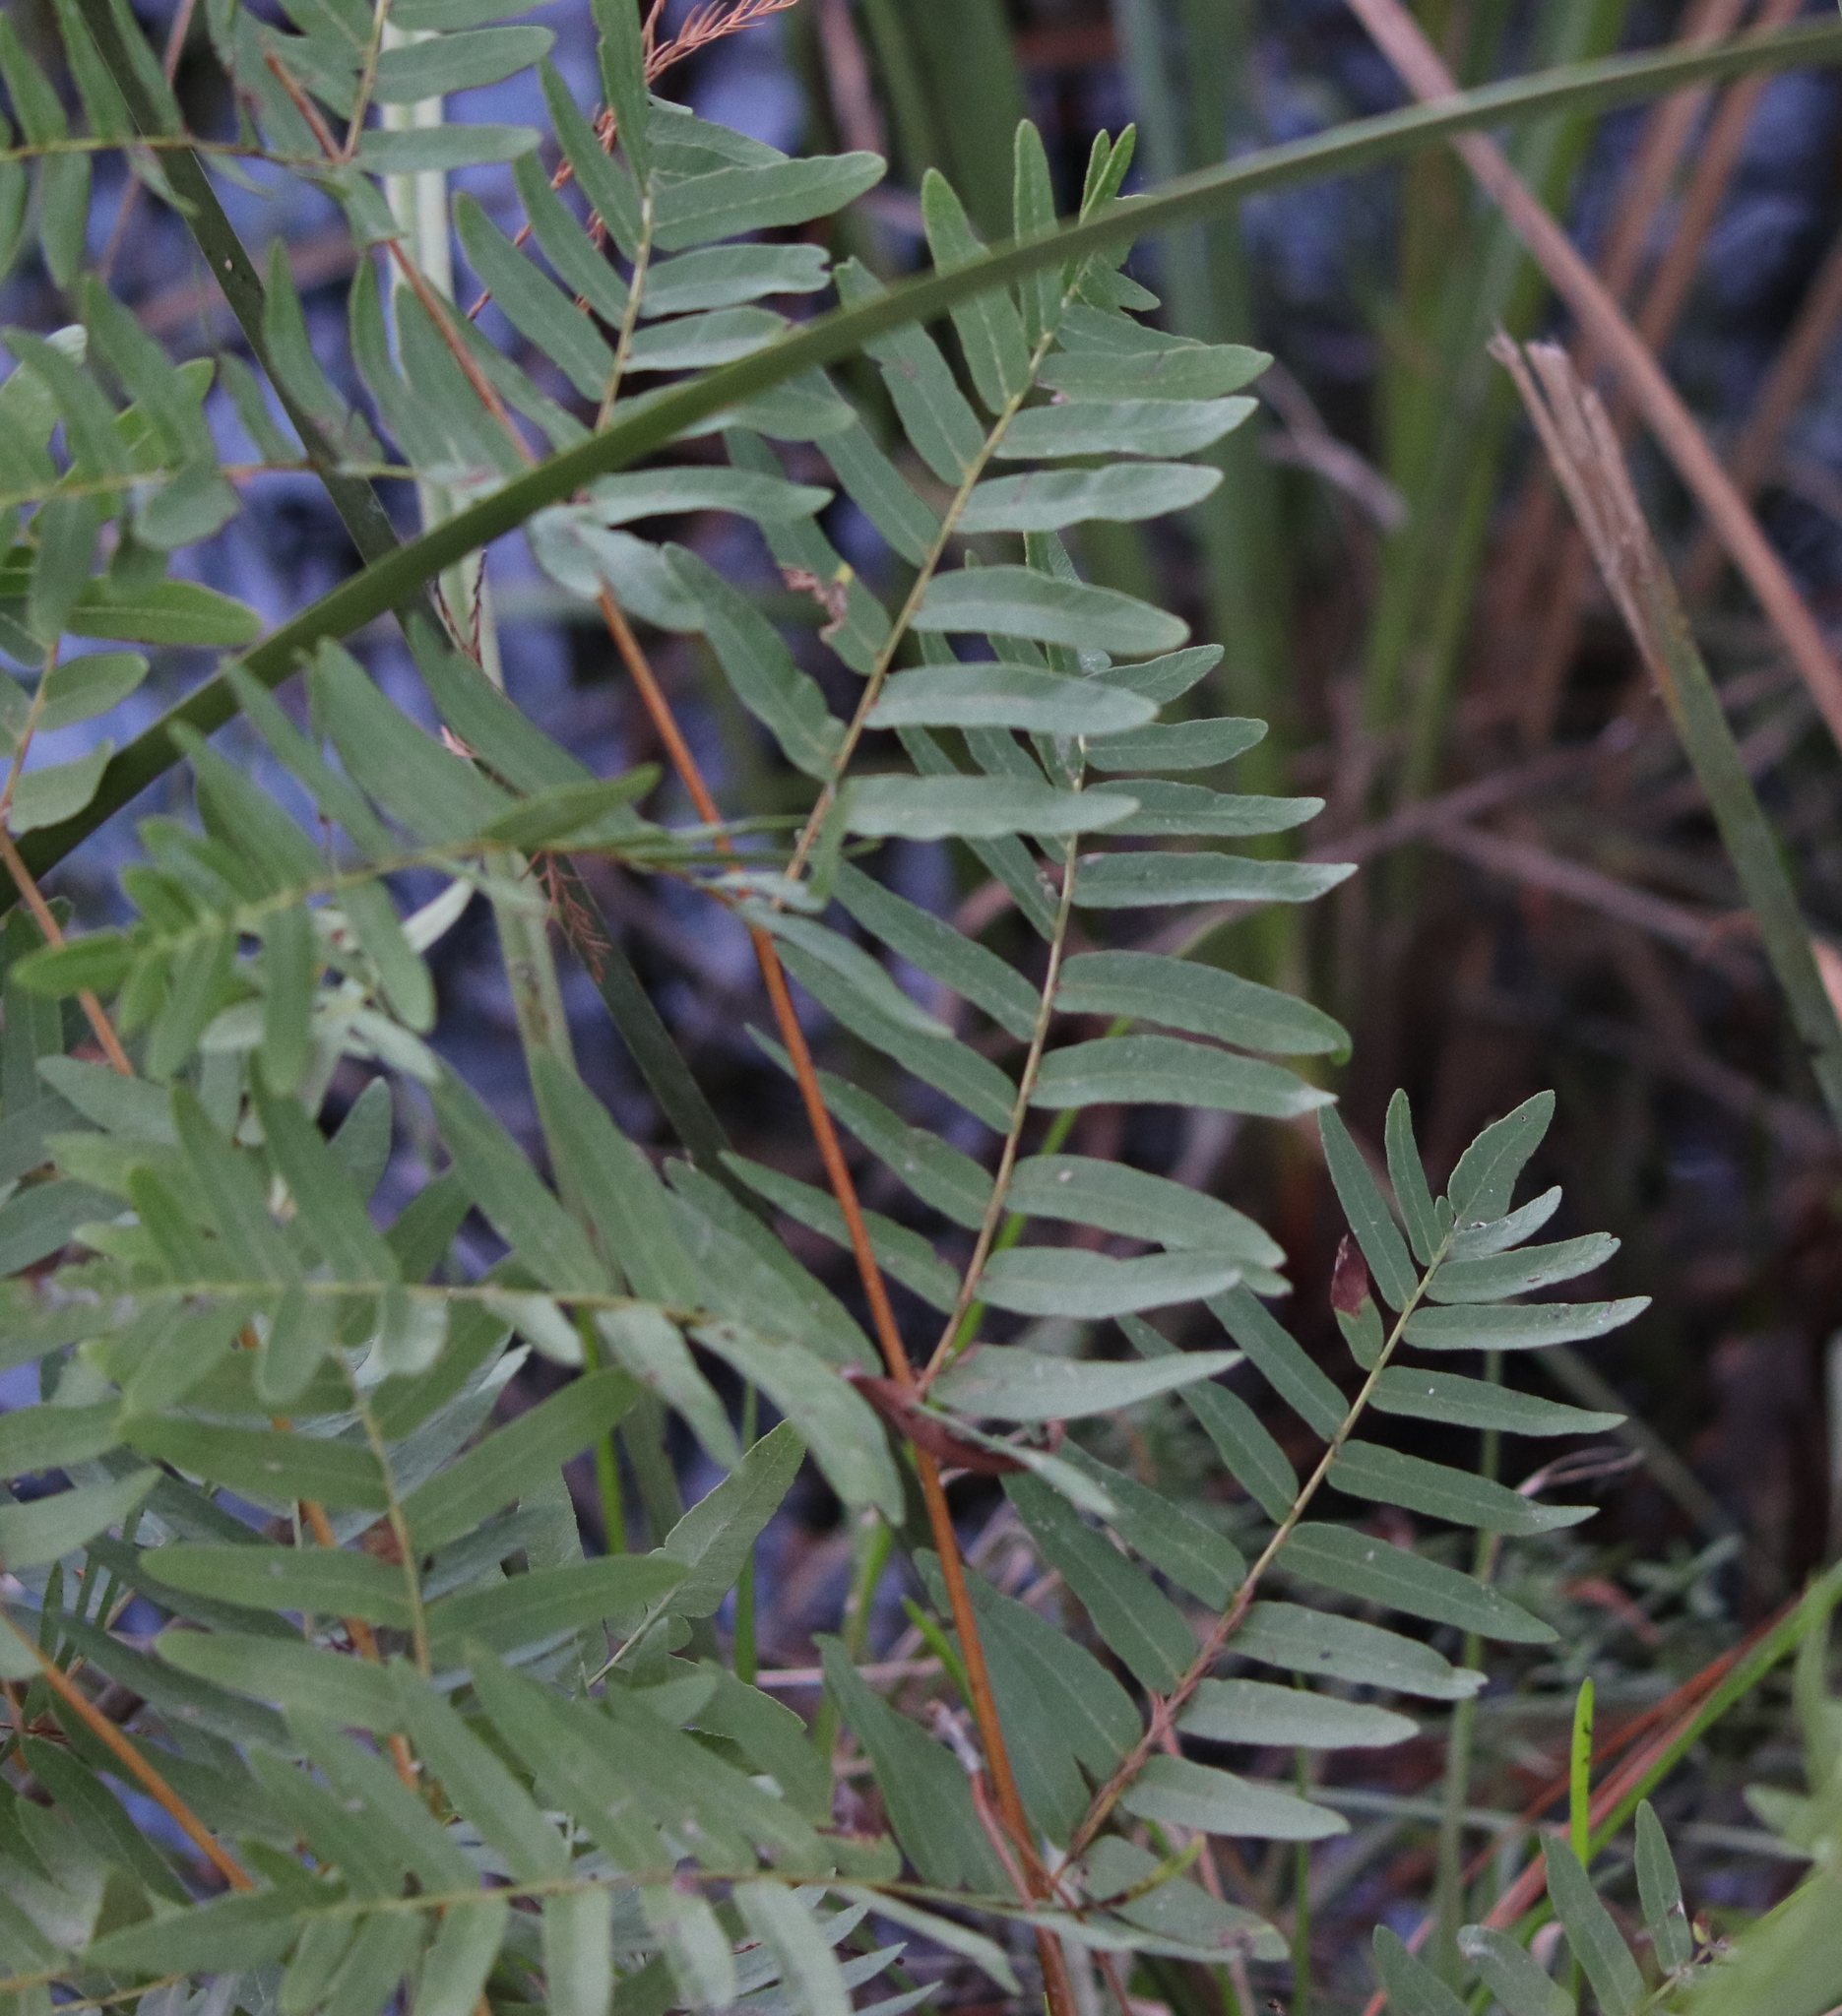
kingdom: Plantae
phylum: Tracheophyta
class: Polypodiopsida
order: Osmundales
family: Osmundaceae
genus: Osmunda
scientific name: Osmunda spectabilis
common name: American royal fern
